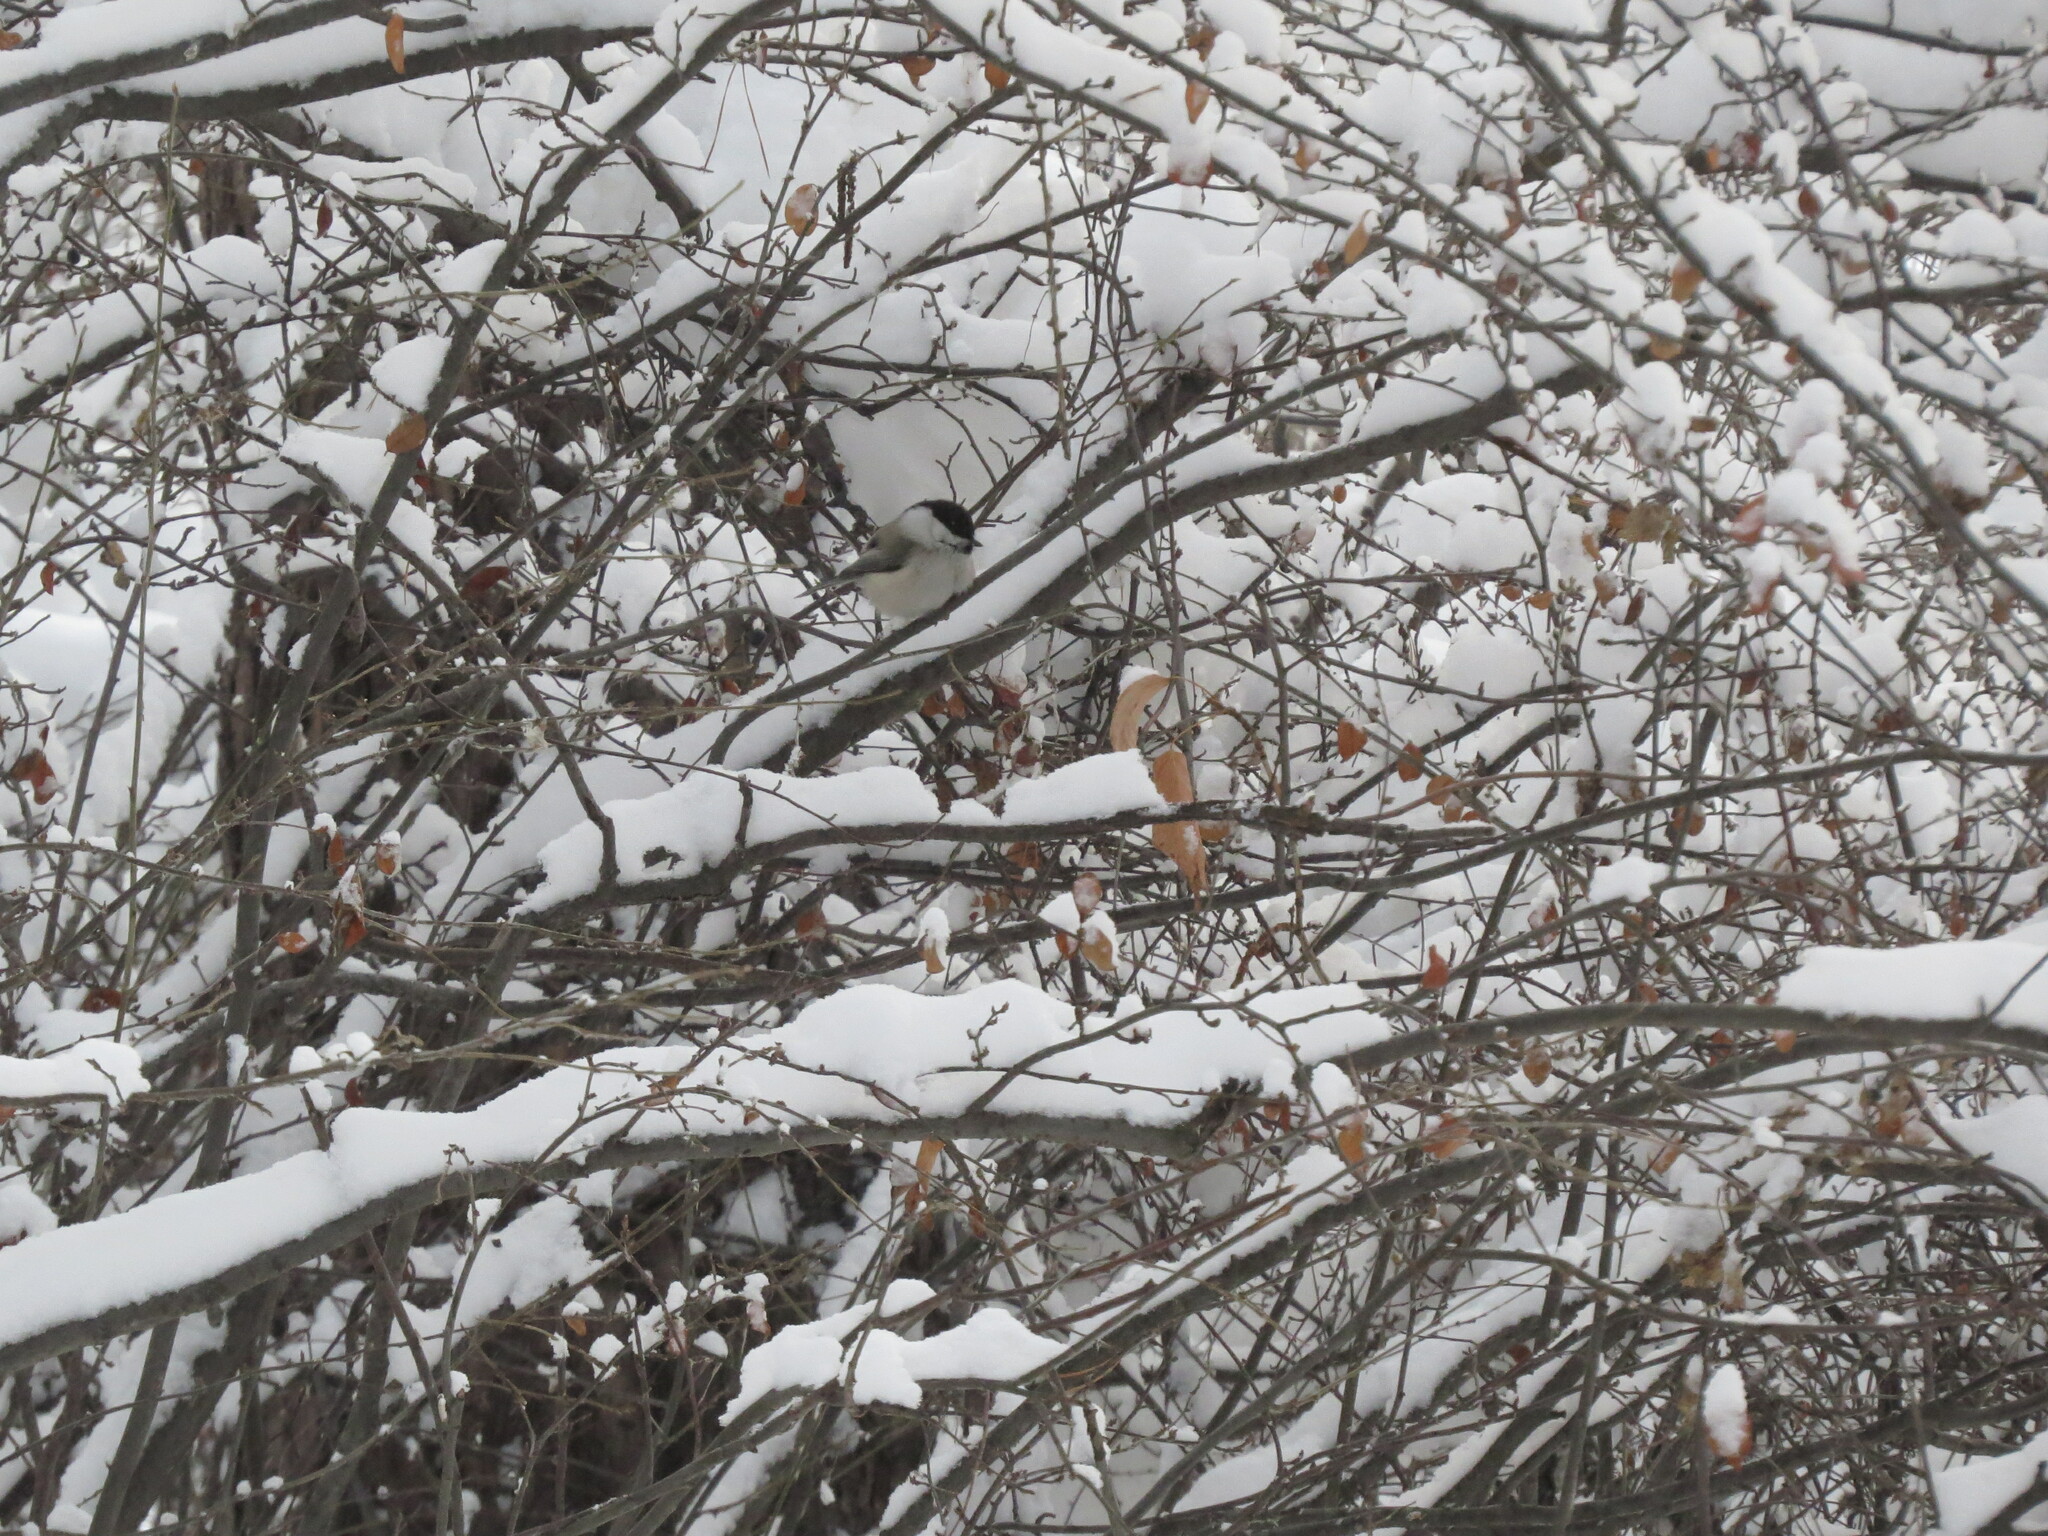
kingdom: Animalia
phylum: Chordata
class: Aves
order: Passeriformes
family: Paridae
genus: Poecile
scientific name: Poecile montanus
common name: Willow tit
